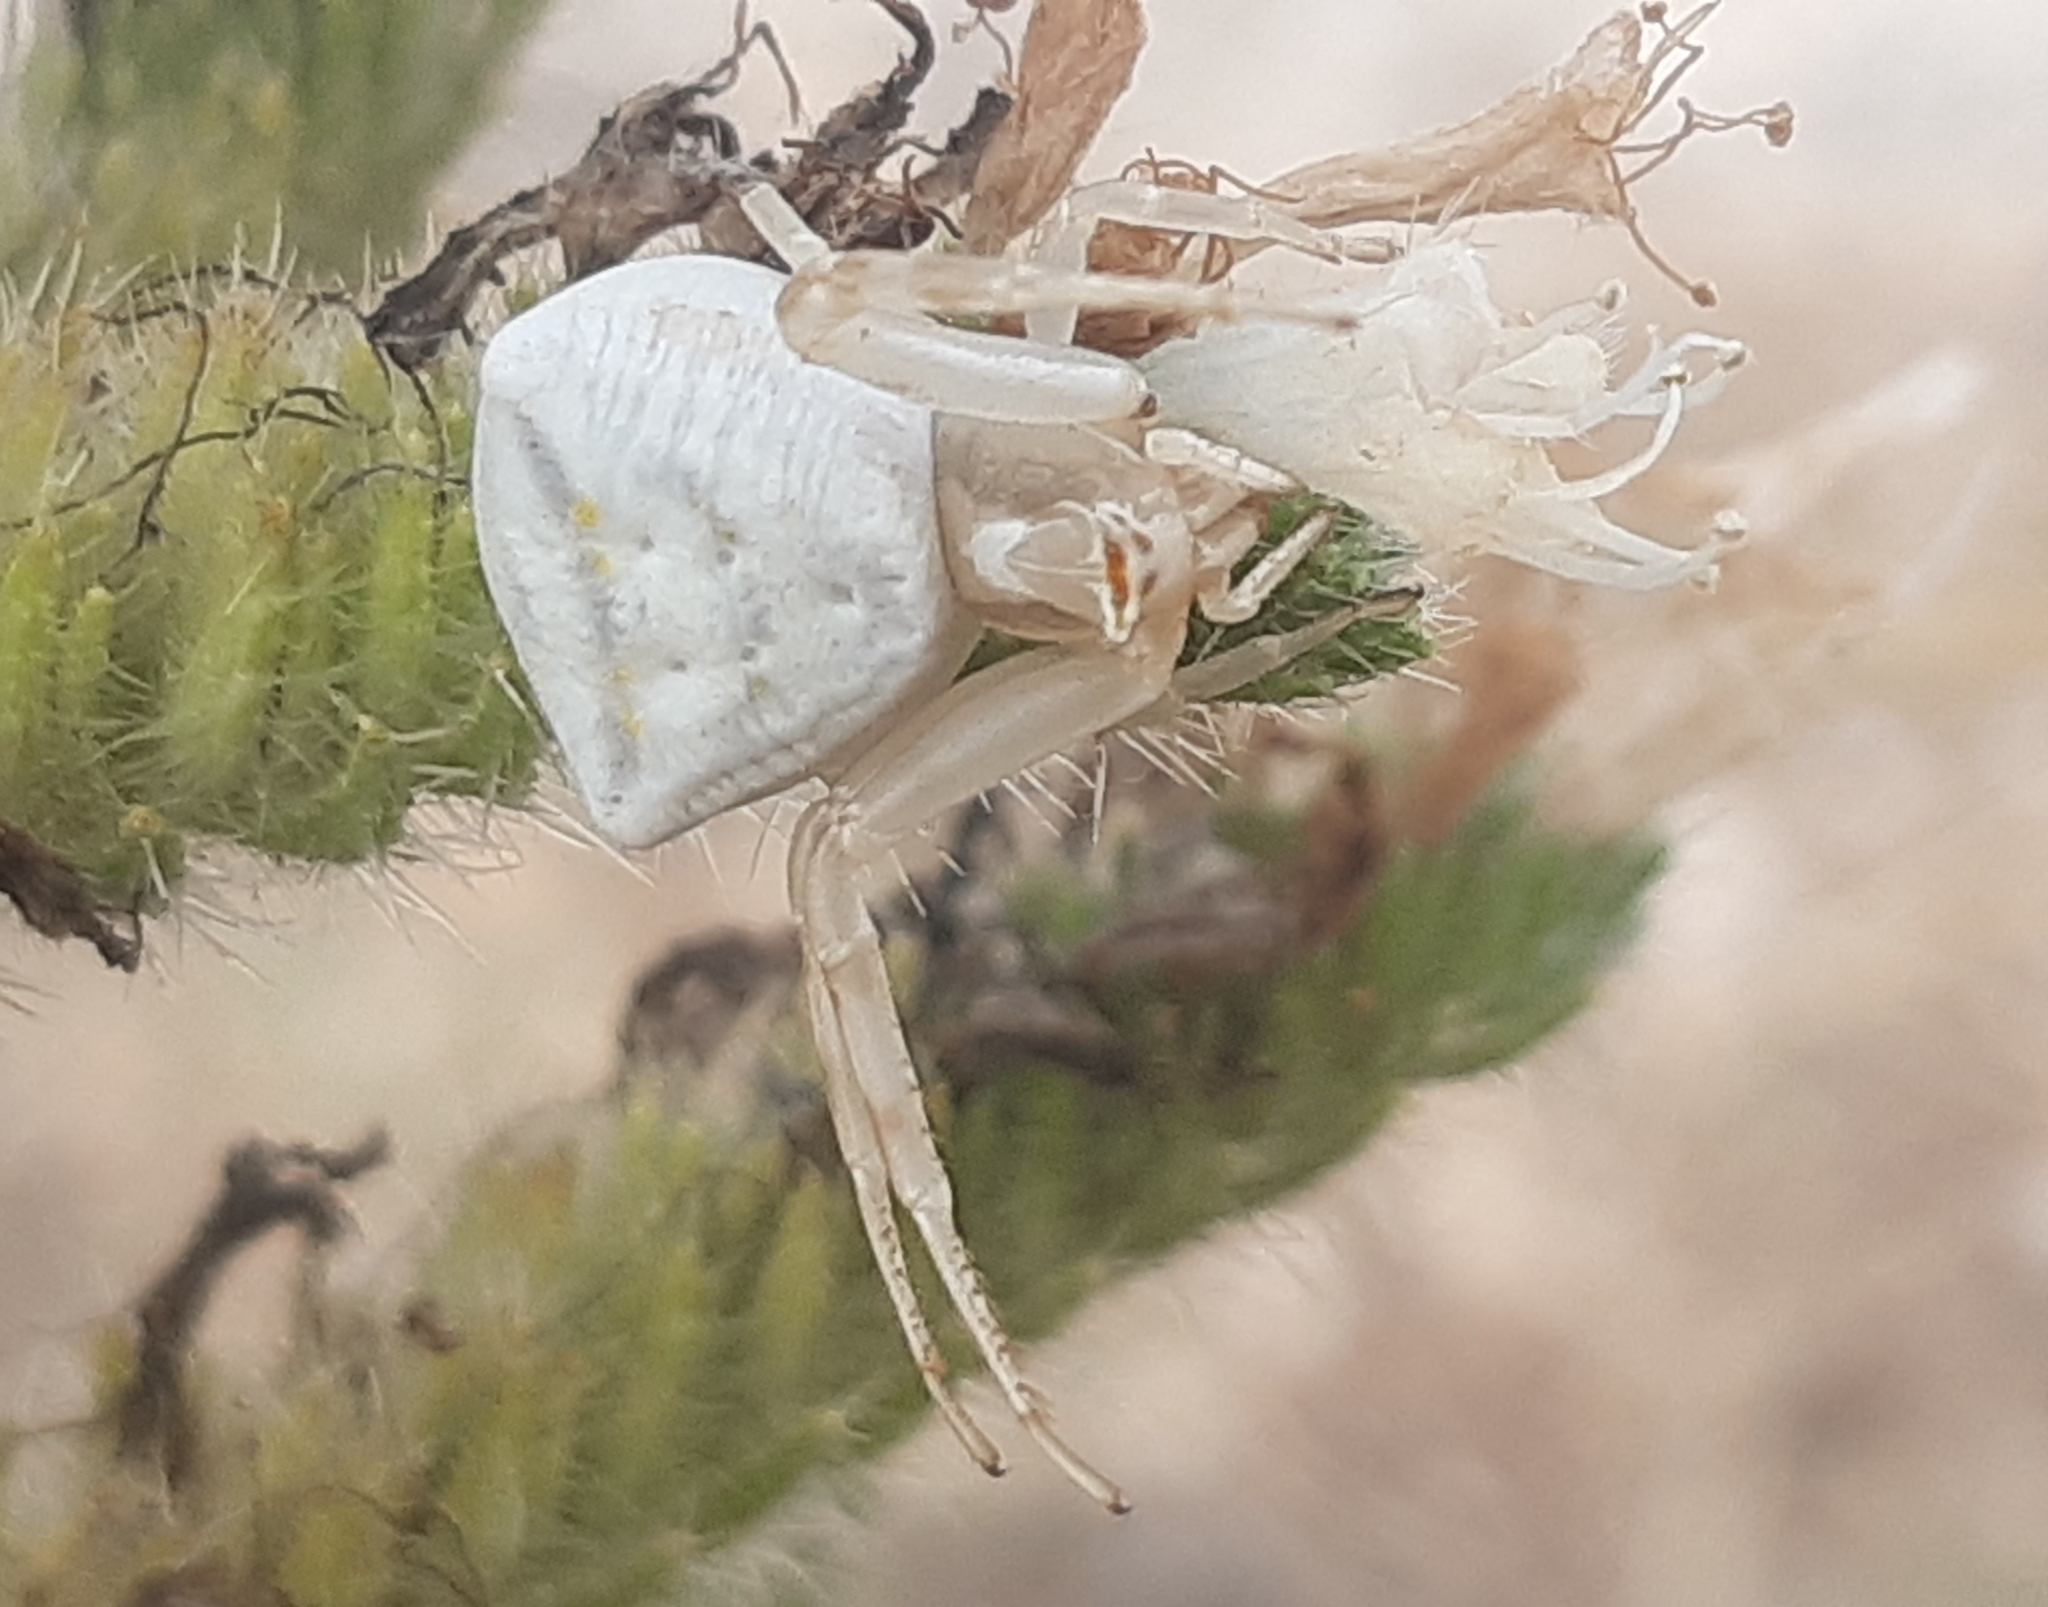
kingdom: Animalia
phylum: Arthropoda
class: Arachnida
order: Araneae
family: Thomisidae
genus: Thomisus
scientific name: Thomisus onustus
